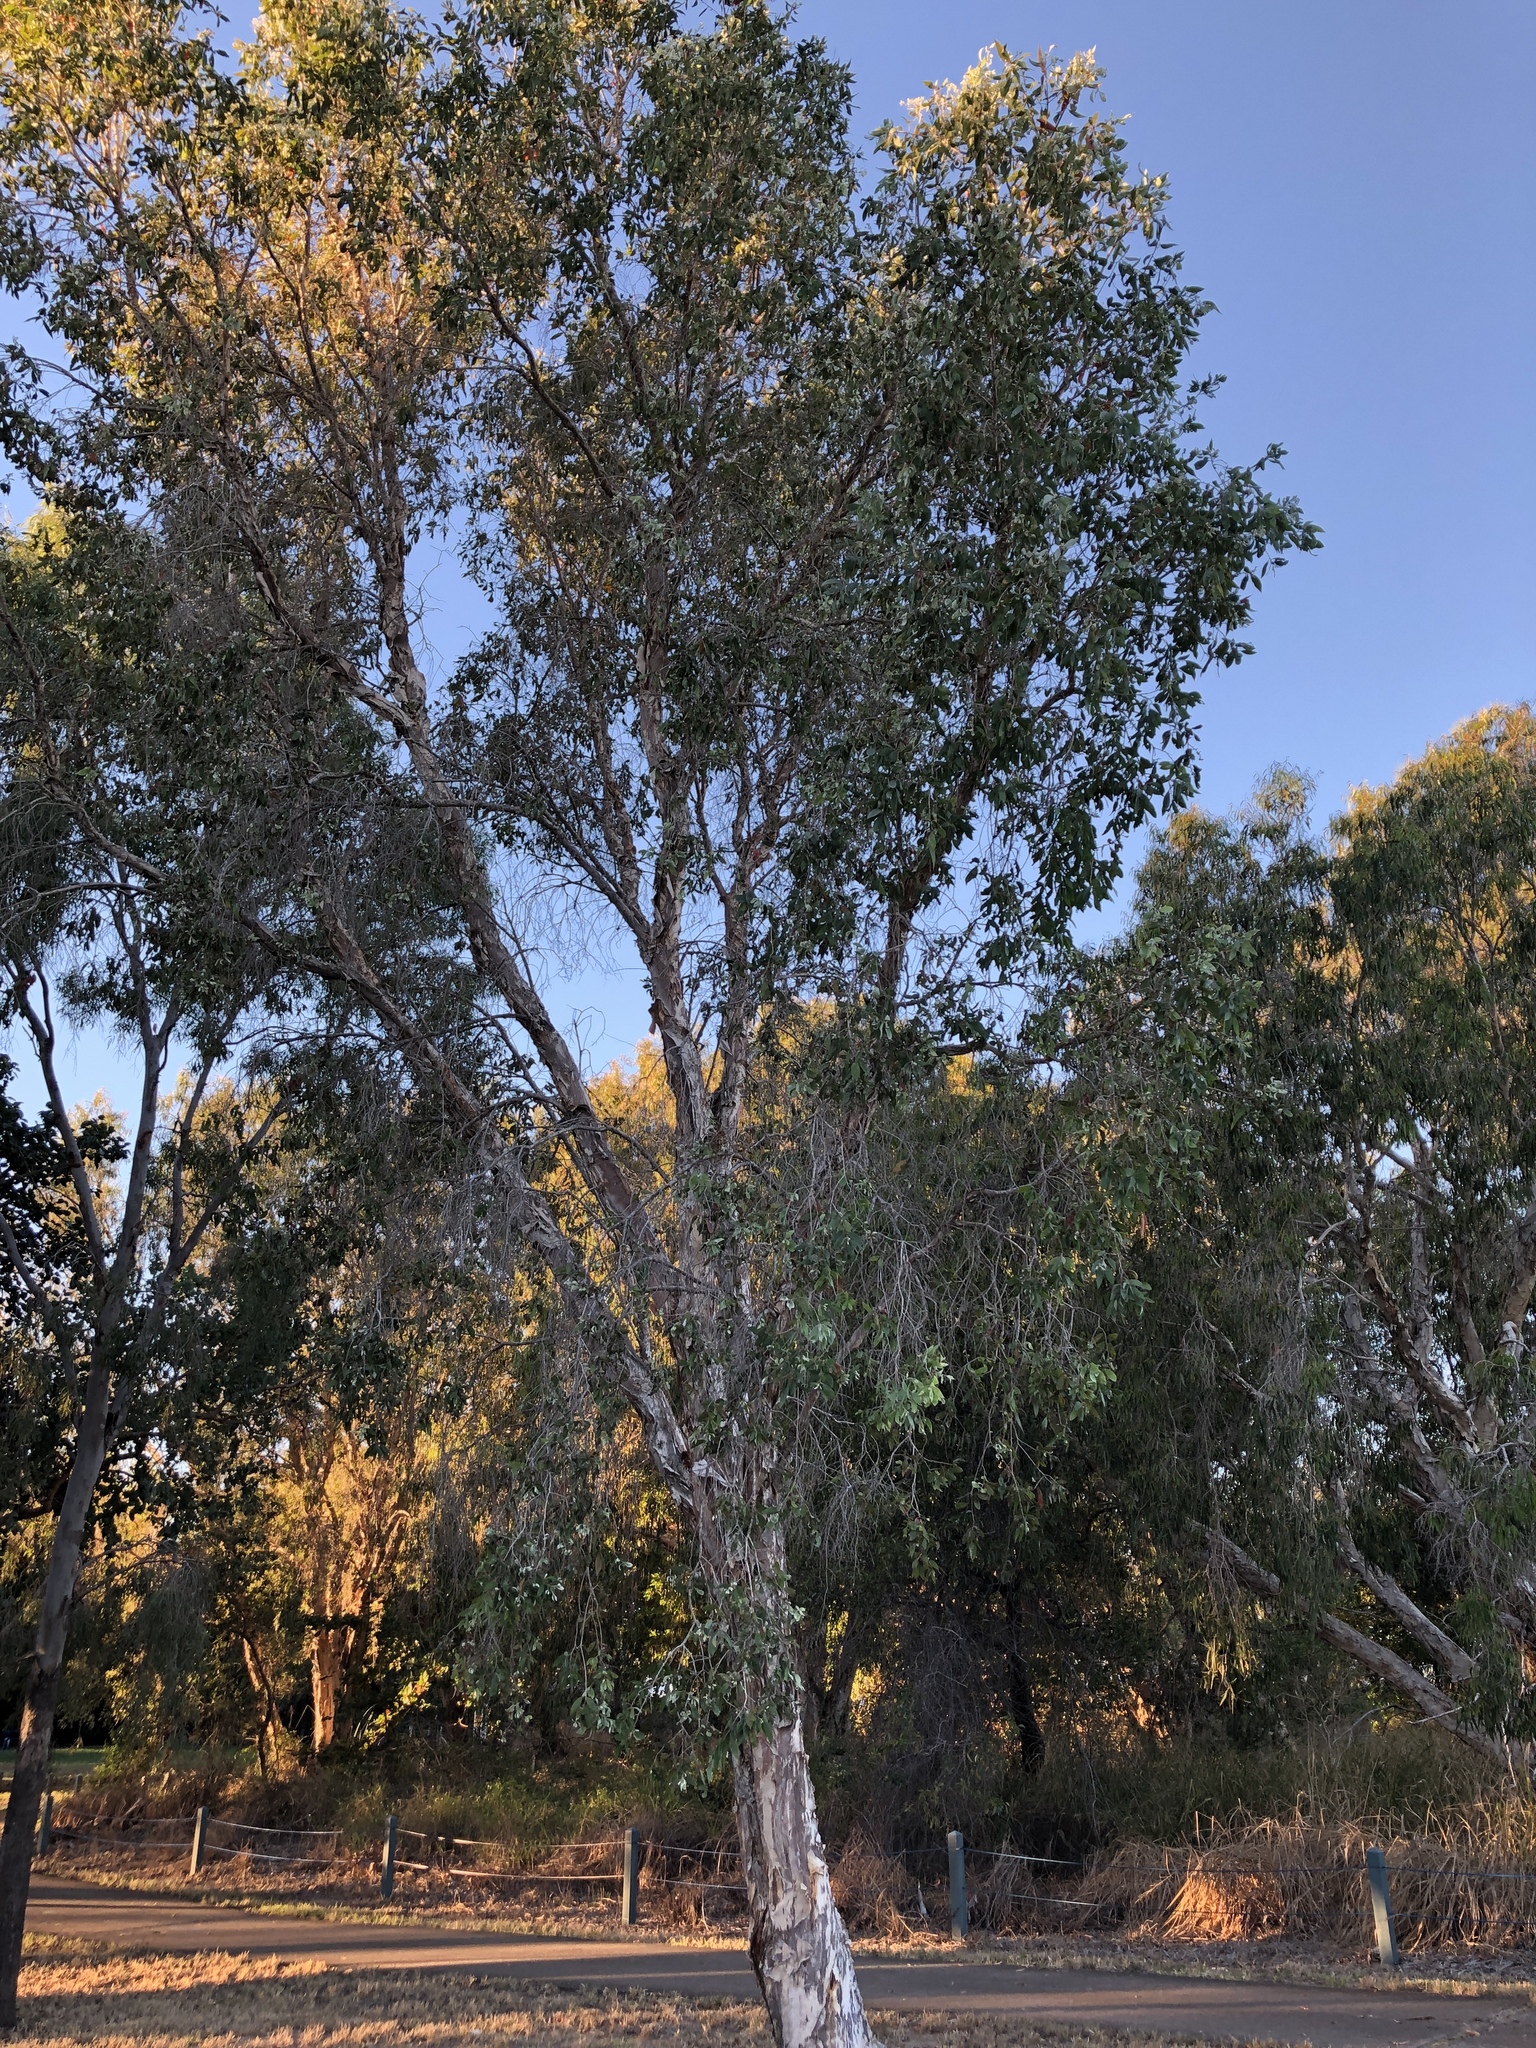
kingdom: Plantae
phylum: Tracheophyta
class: Magnoliopsida
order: Myrtales
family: Myrtaceae
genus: Melaleuca
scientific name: Melaleuca viridiflora
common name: Brown-leaved paperbark
